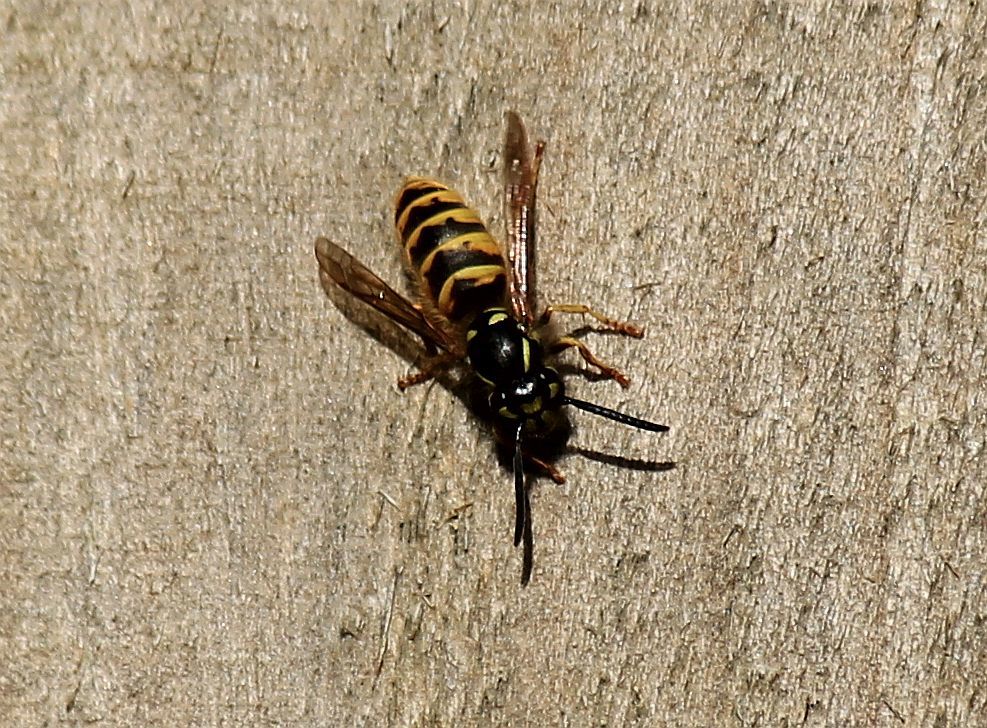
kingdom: Animalia
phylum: Arthropoda
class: Insecta
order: Hymenoptera
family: Vespidae
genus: Vespula
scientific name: Vespula vulgaris
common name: Common wasp
